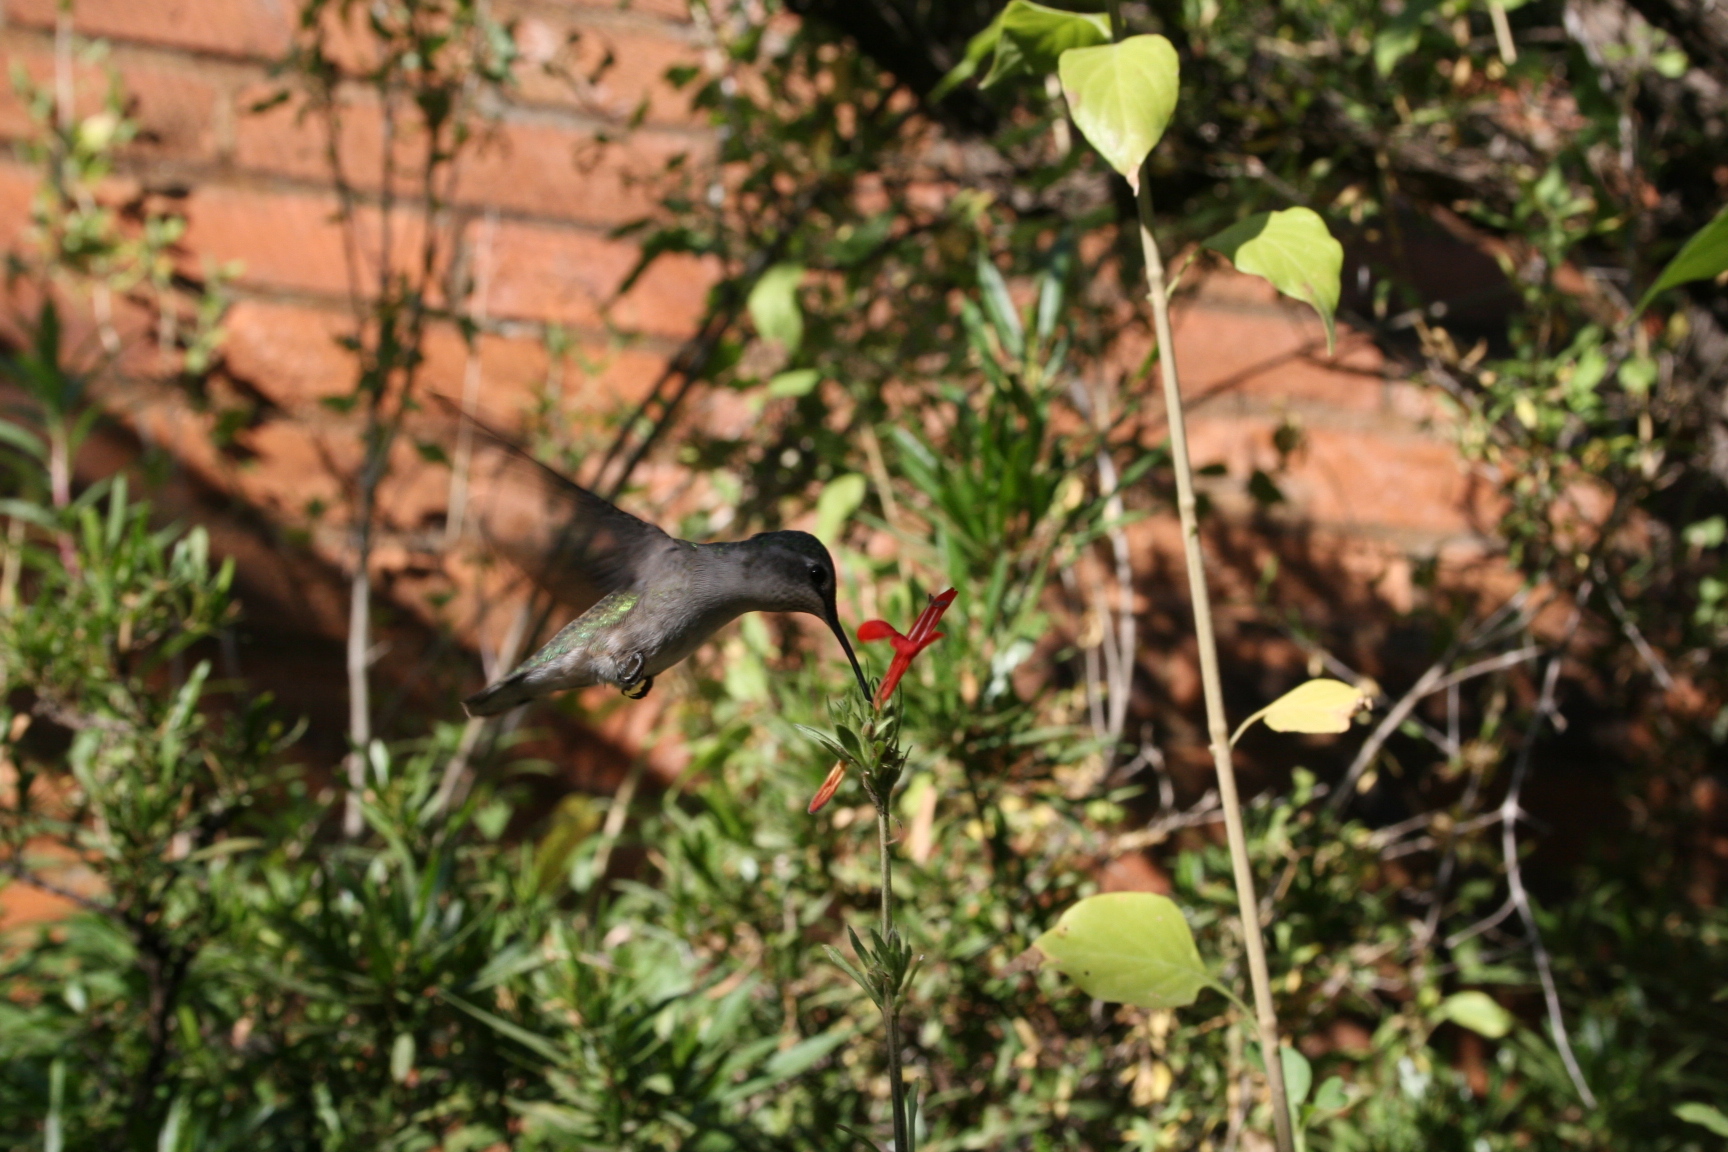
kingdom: Animalia
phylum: Chordata
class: Aves
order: Apodiformes
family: Trochilidae
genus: Calypte
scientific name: Calypte costae
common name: Costa's hummingbird
